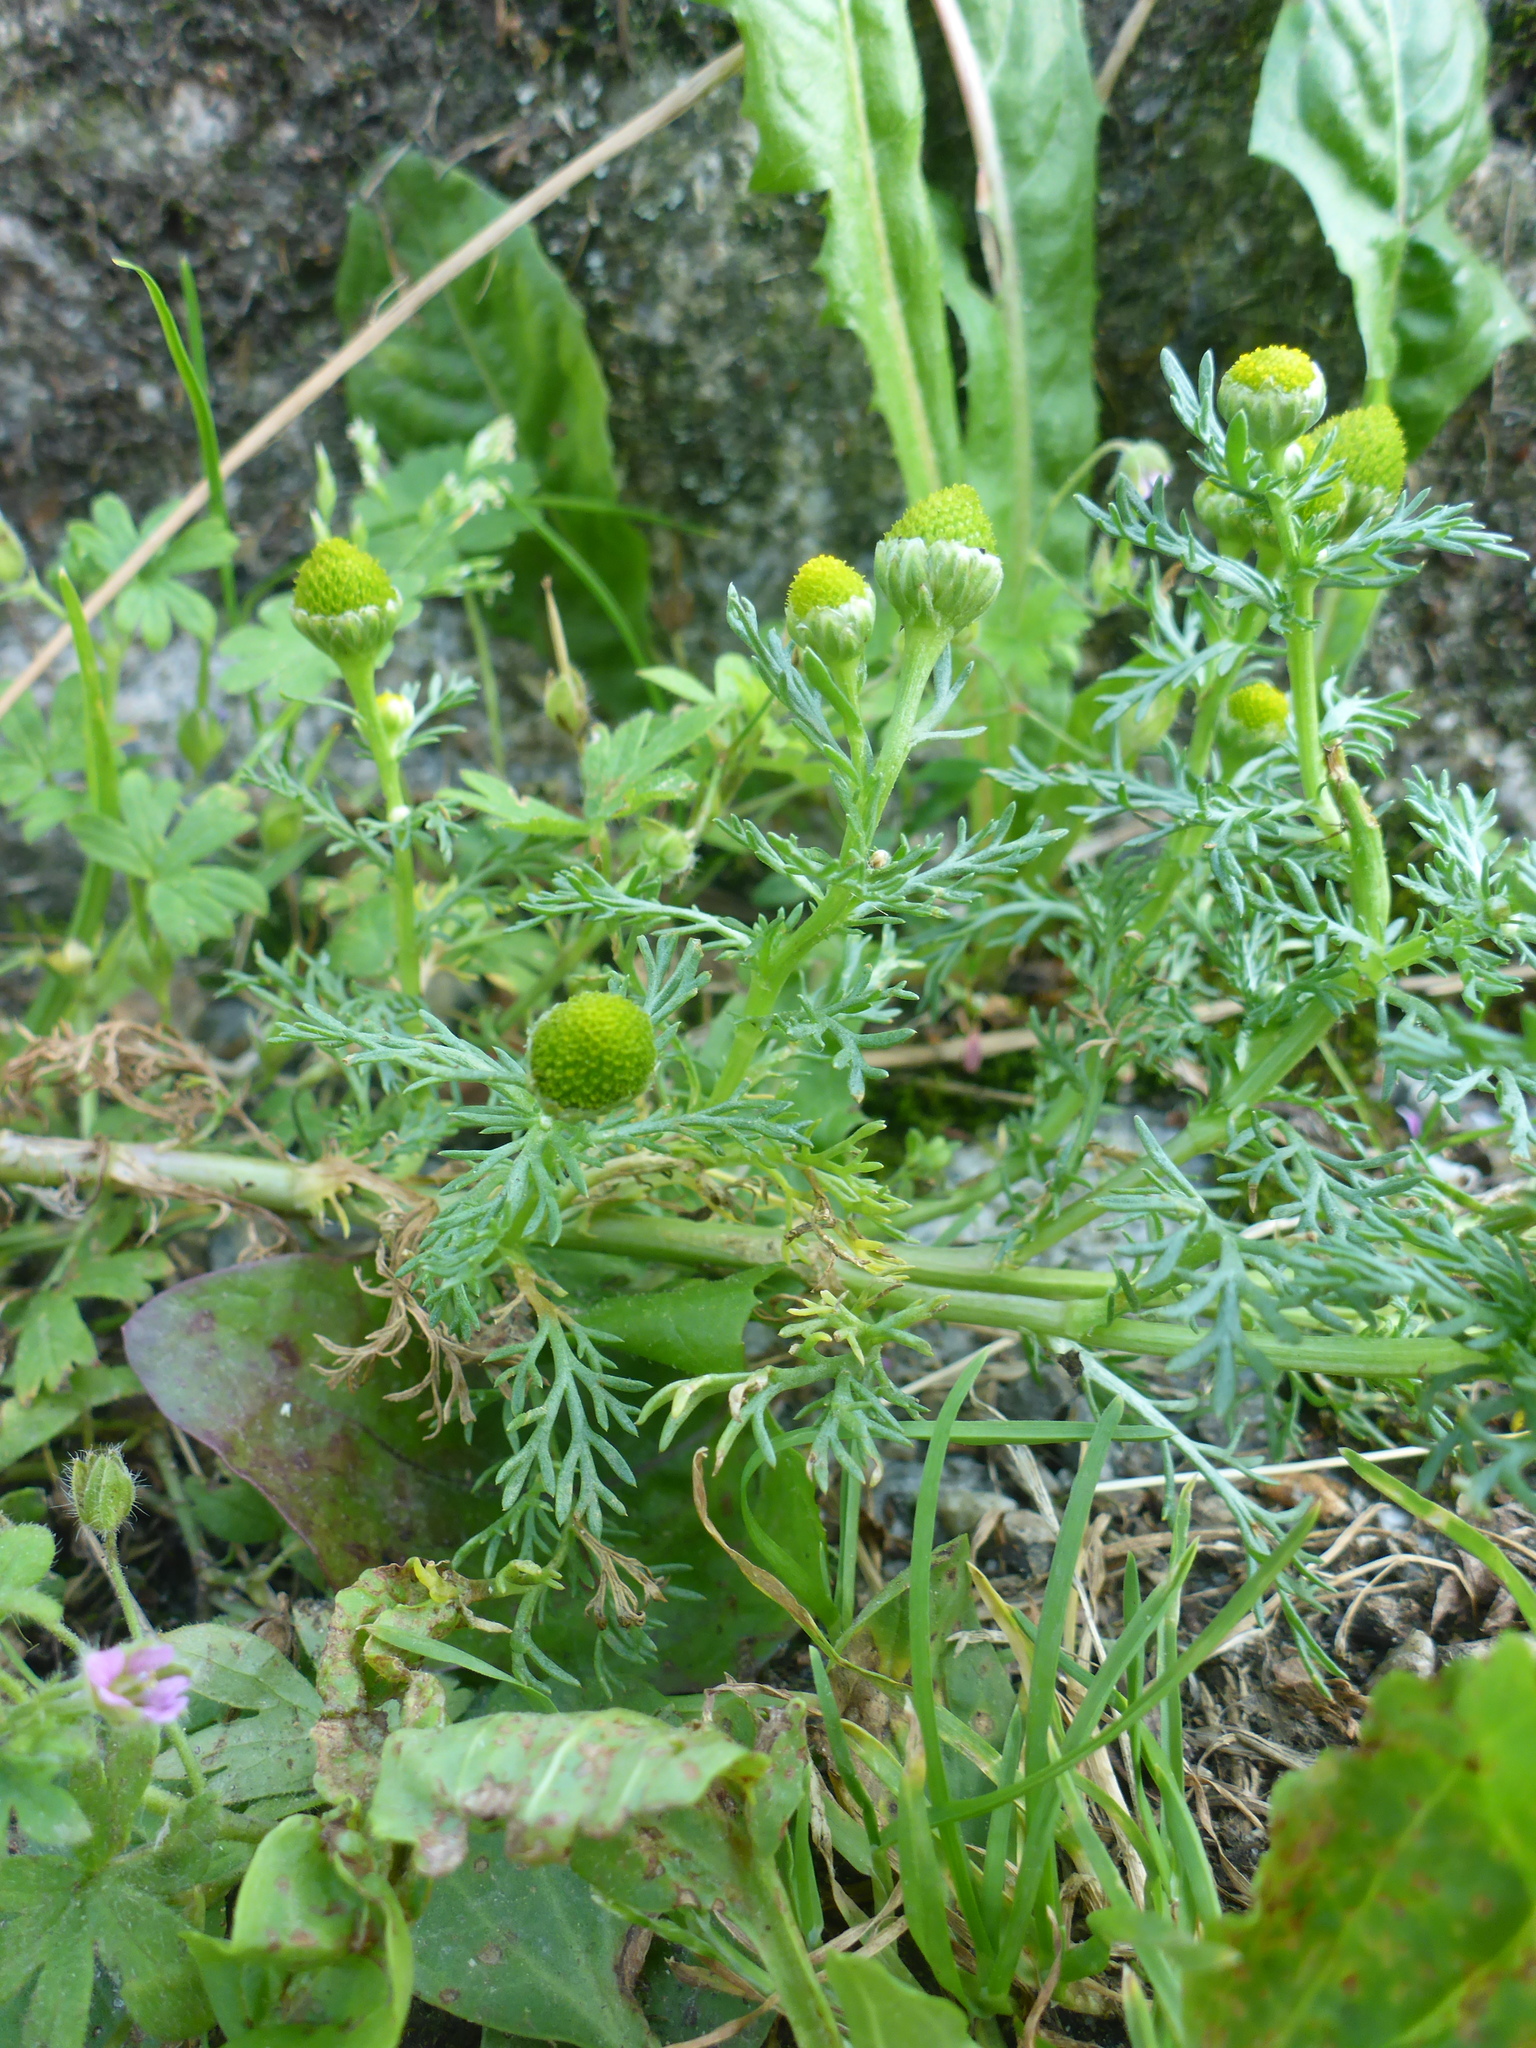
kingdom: Plantae
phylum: Tracheophyta
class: Magnoliopsida
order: Asterales
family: Asteraceae
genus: Matricaria
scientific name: Matricaria discoidea
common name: Disc mayweed
